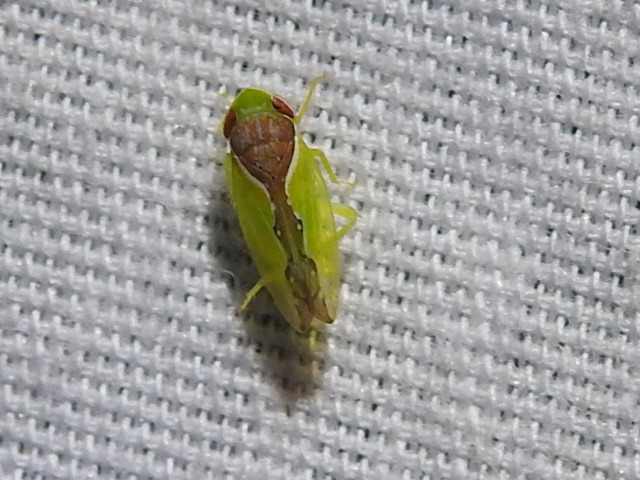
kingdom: Animalia
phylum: Arthropoda
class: Insecta
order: Hemiptera
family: Cicadellidae
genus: Omansobara ing
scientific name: Omansobara ing Omansobara palliolata
